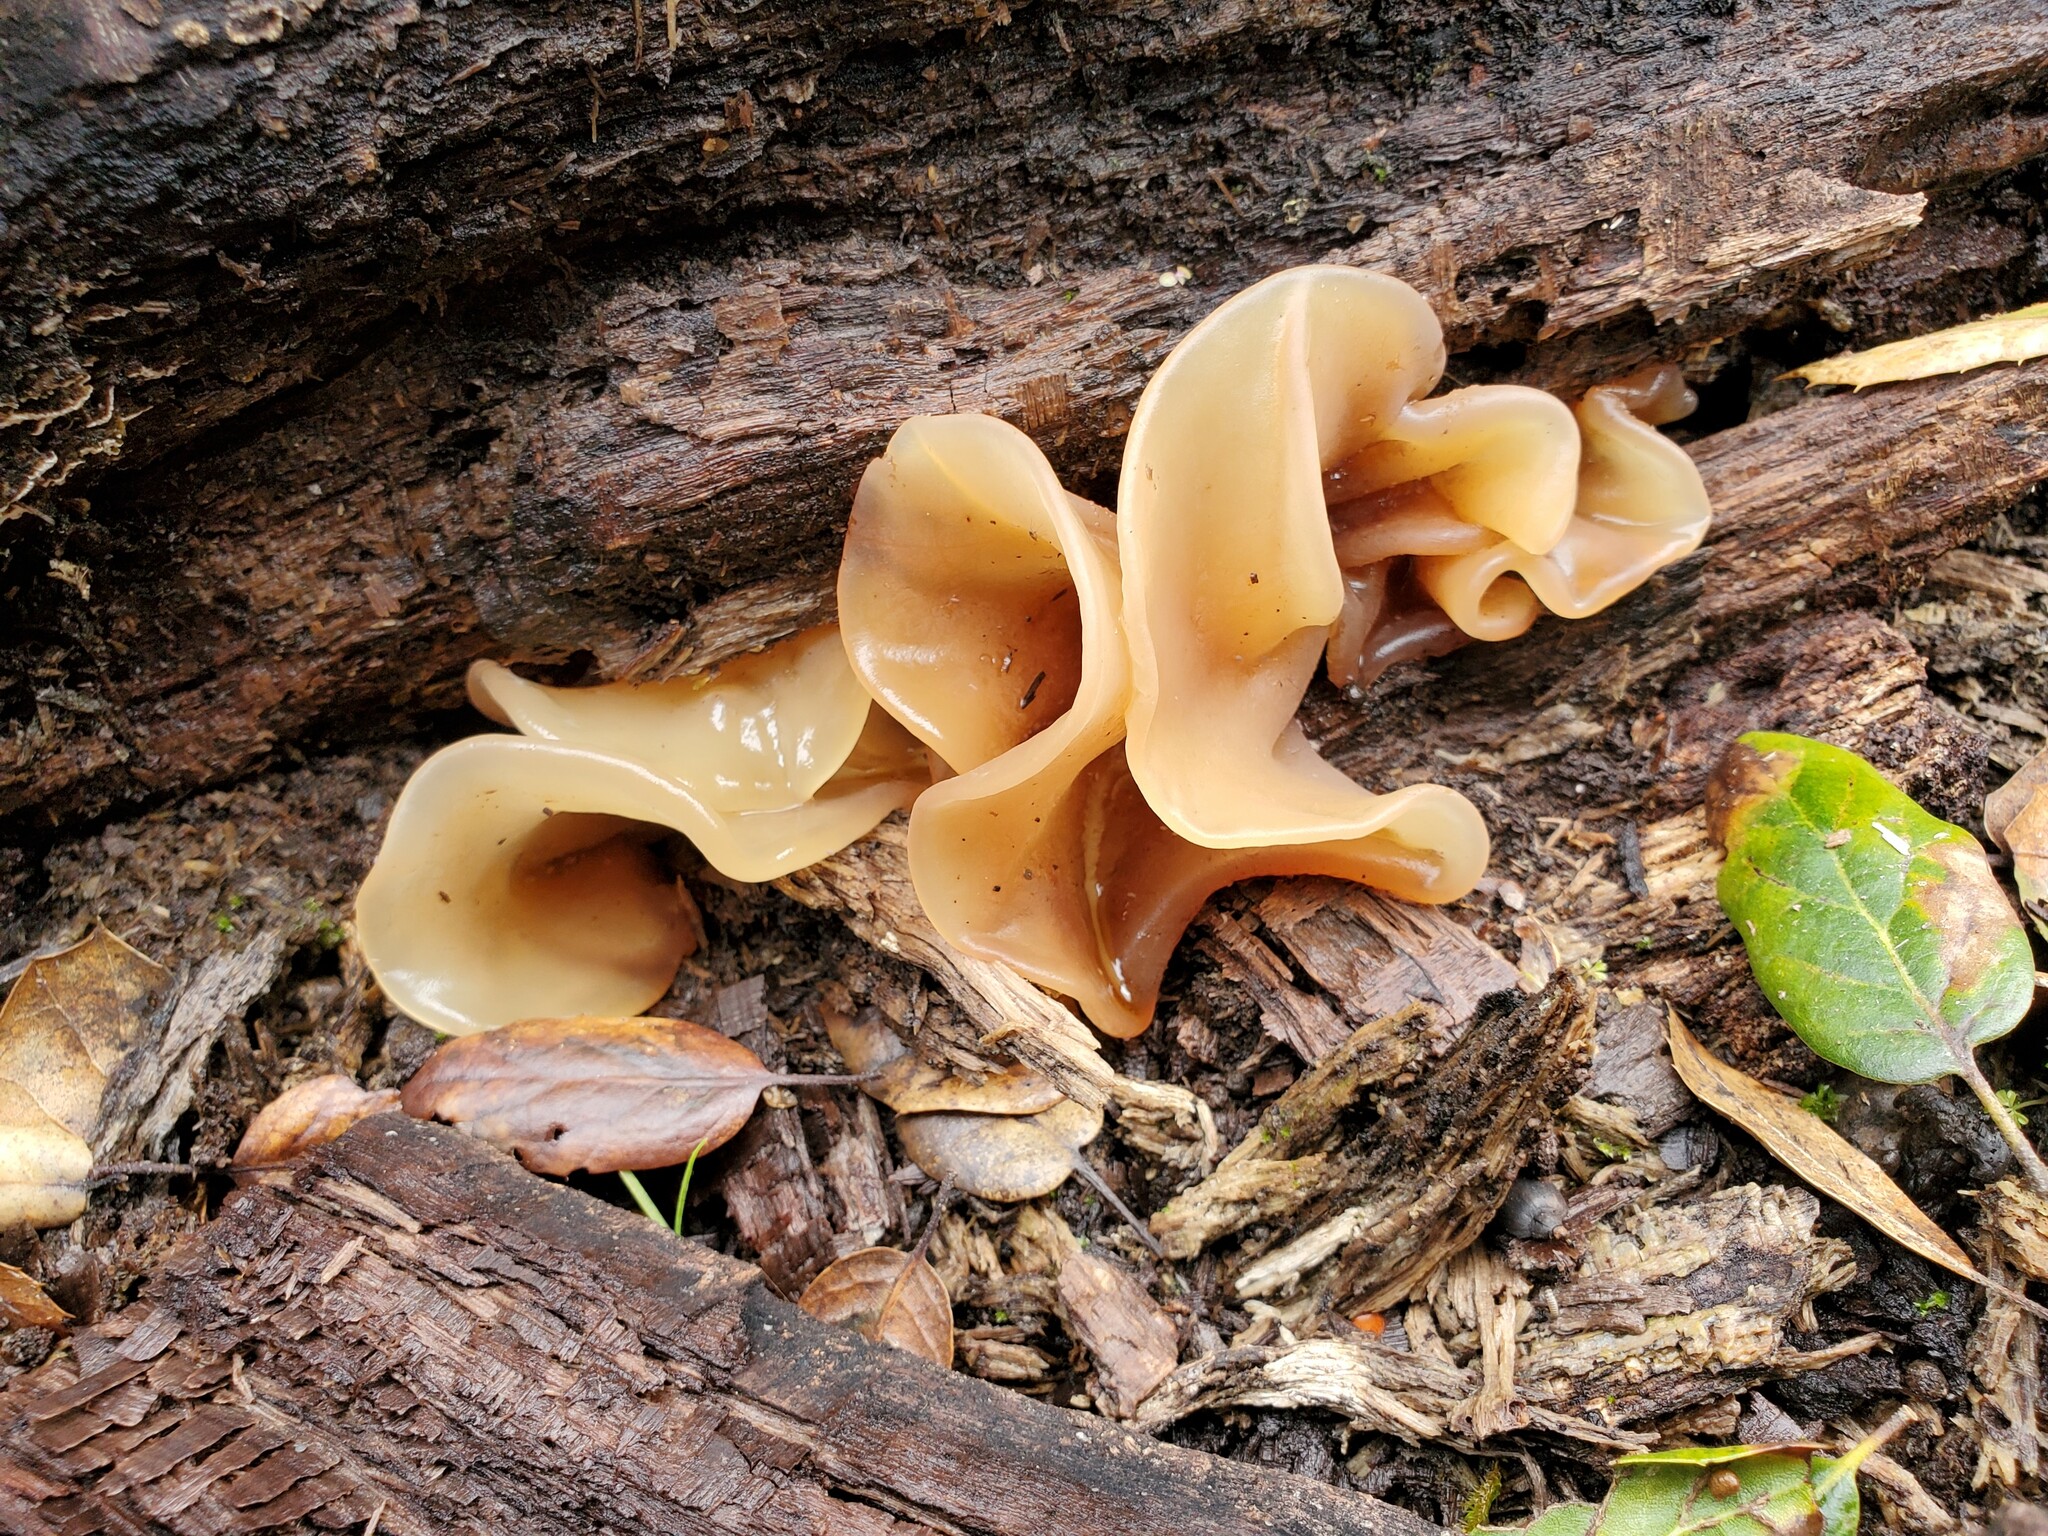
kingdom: Fungi
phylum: Basidiomycota
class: Tremellomycetes
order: Tremellales
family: Tremellaceae
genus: Phaeotremella
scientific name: Phaeotremella frondosa
